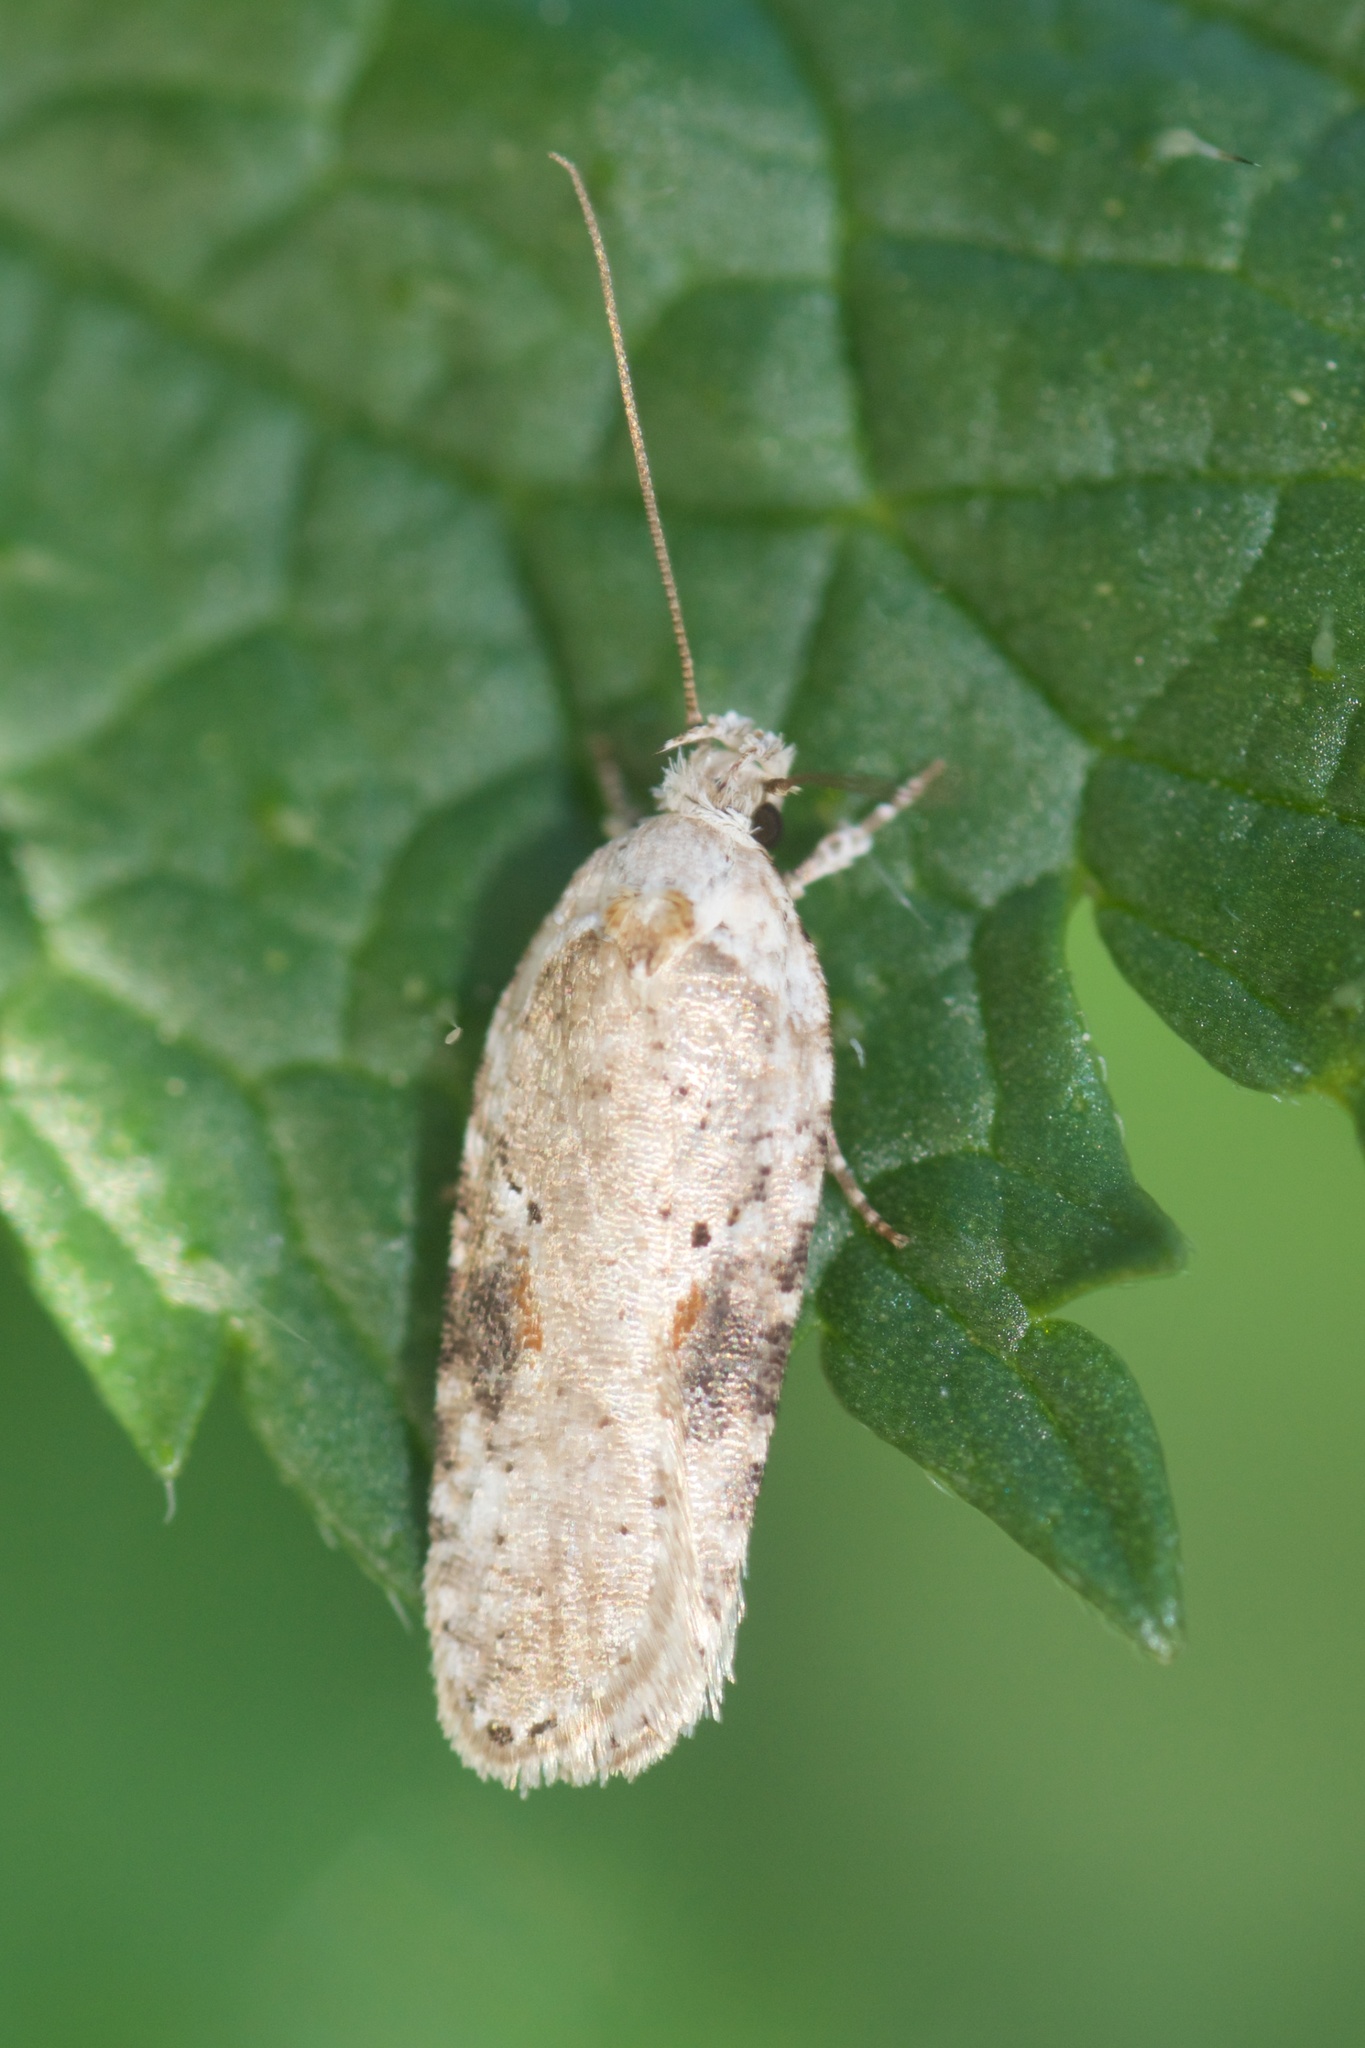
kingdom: Animalia
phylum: Arthropoda
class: Insecta
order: Lepidoptera
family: Depressariidae
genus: Agonopterix
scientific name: Agonopterix alstroemeriana
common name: Moth
